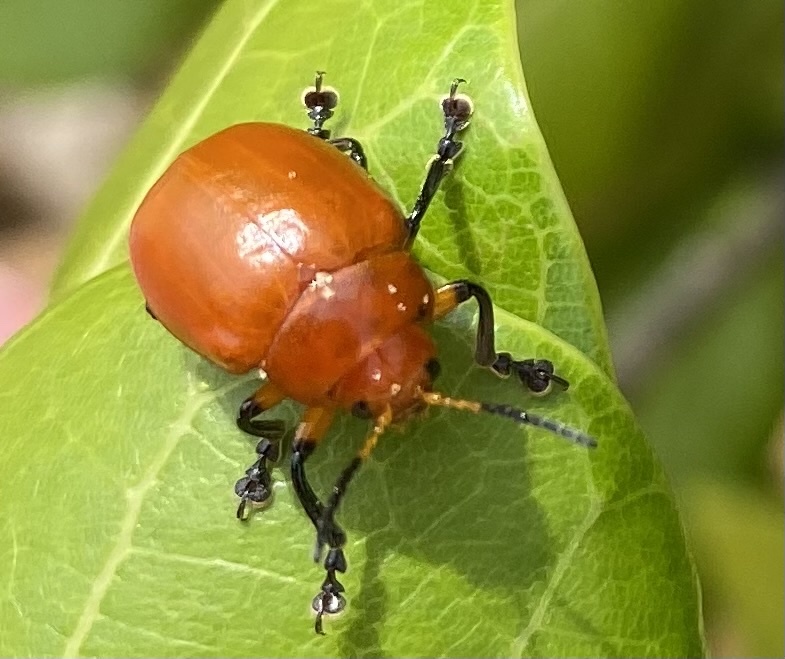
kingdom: Animalia
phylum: Arthropoda
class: Insecta
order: Coleoptera
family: Chrysomelidae
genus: Crimissa
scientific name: Crimissa cruralis
